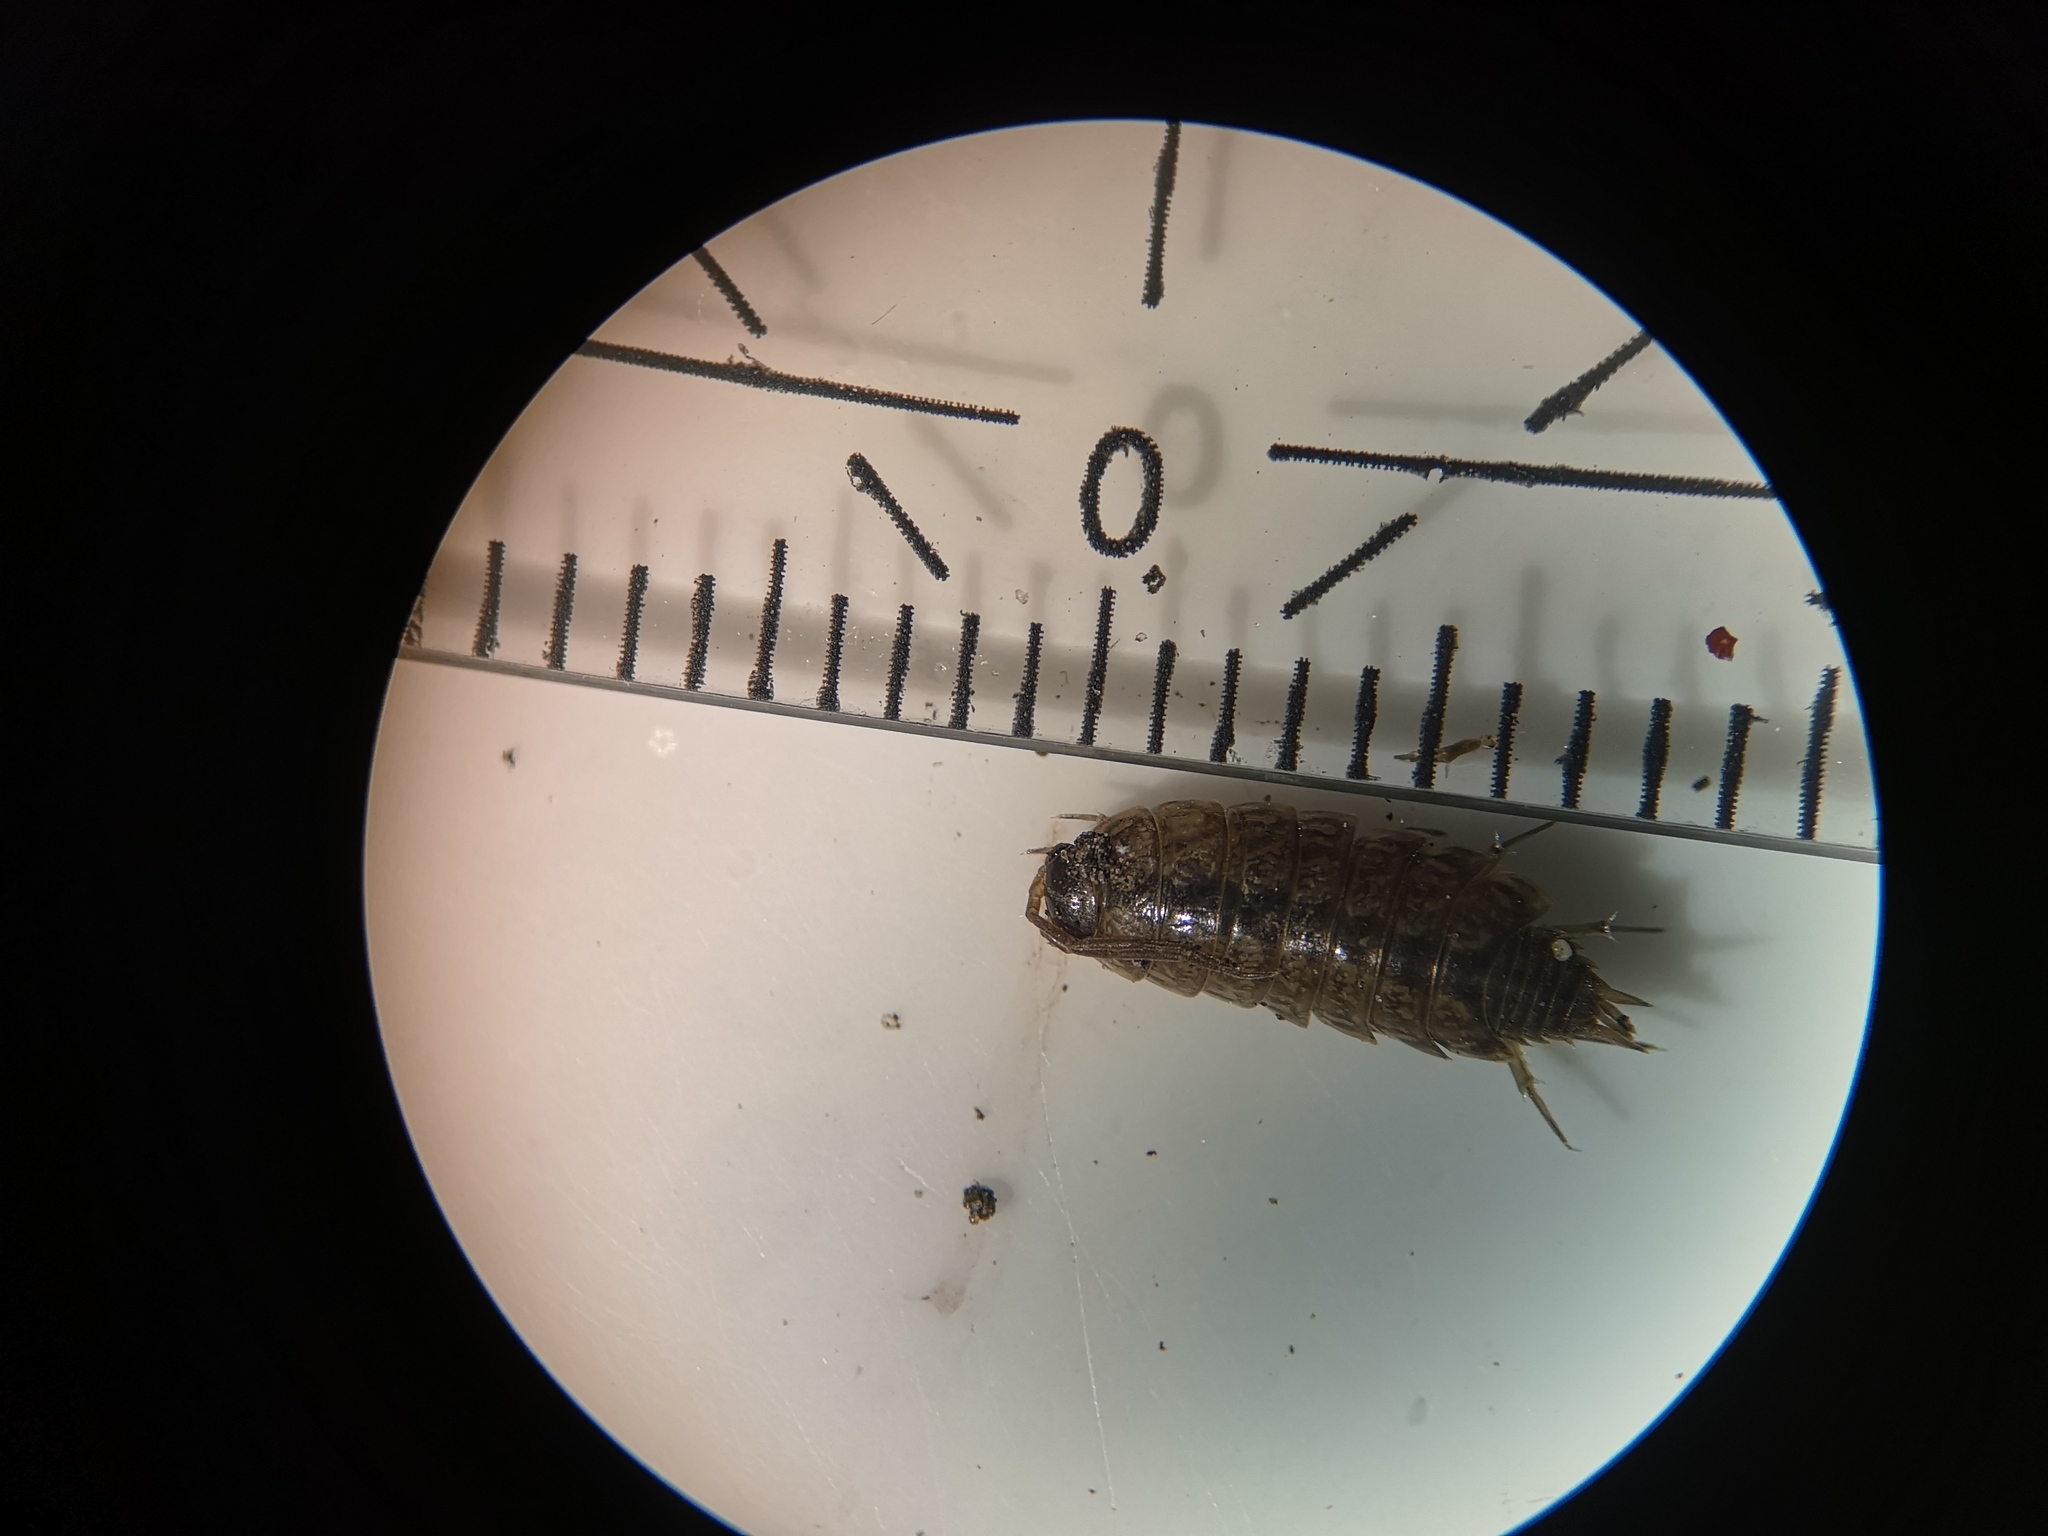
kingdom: Animalia
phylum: Arthropoda
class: Malacostraca
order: Isopoda
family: Philosciidae
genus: Philoscia
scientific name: Philoscia muscorum
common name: Common striped woodlouse
